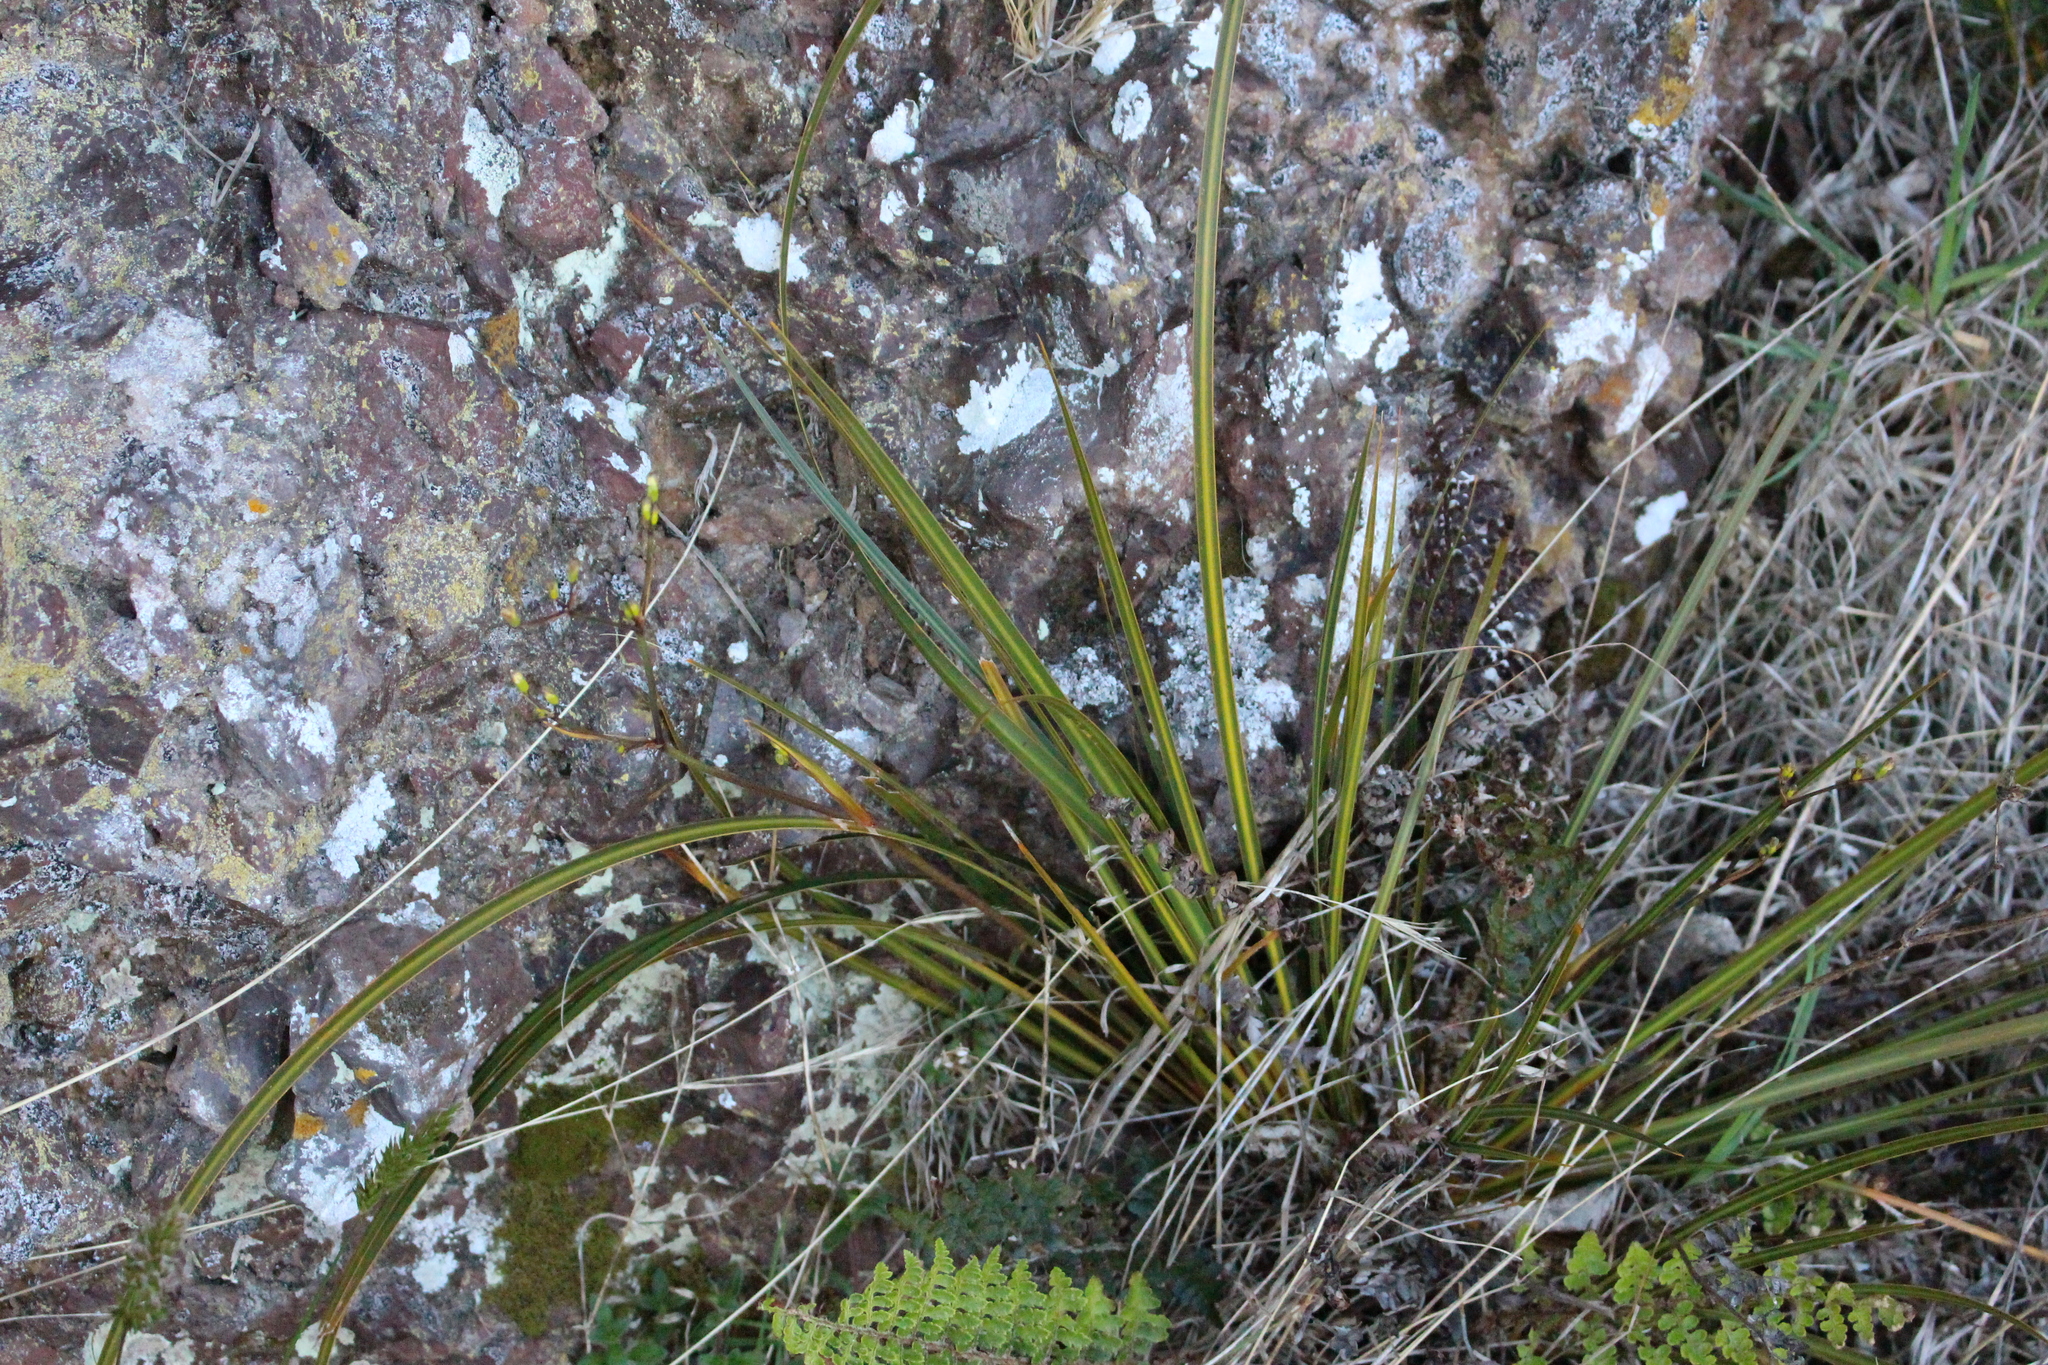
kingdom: Plantae
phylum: Tracheophyta
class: Liliopsida
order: Asparagales
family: Iridaceae
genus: Libertia
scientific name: Libertia ixioides
